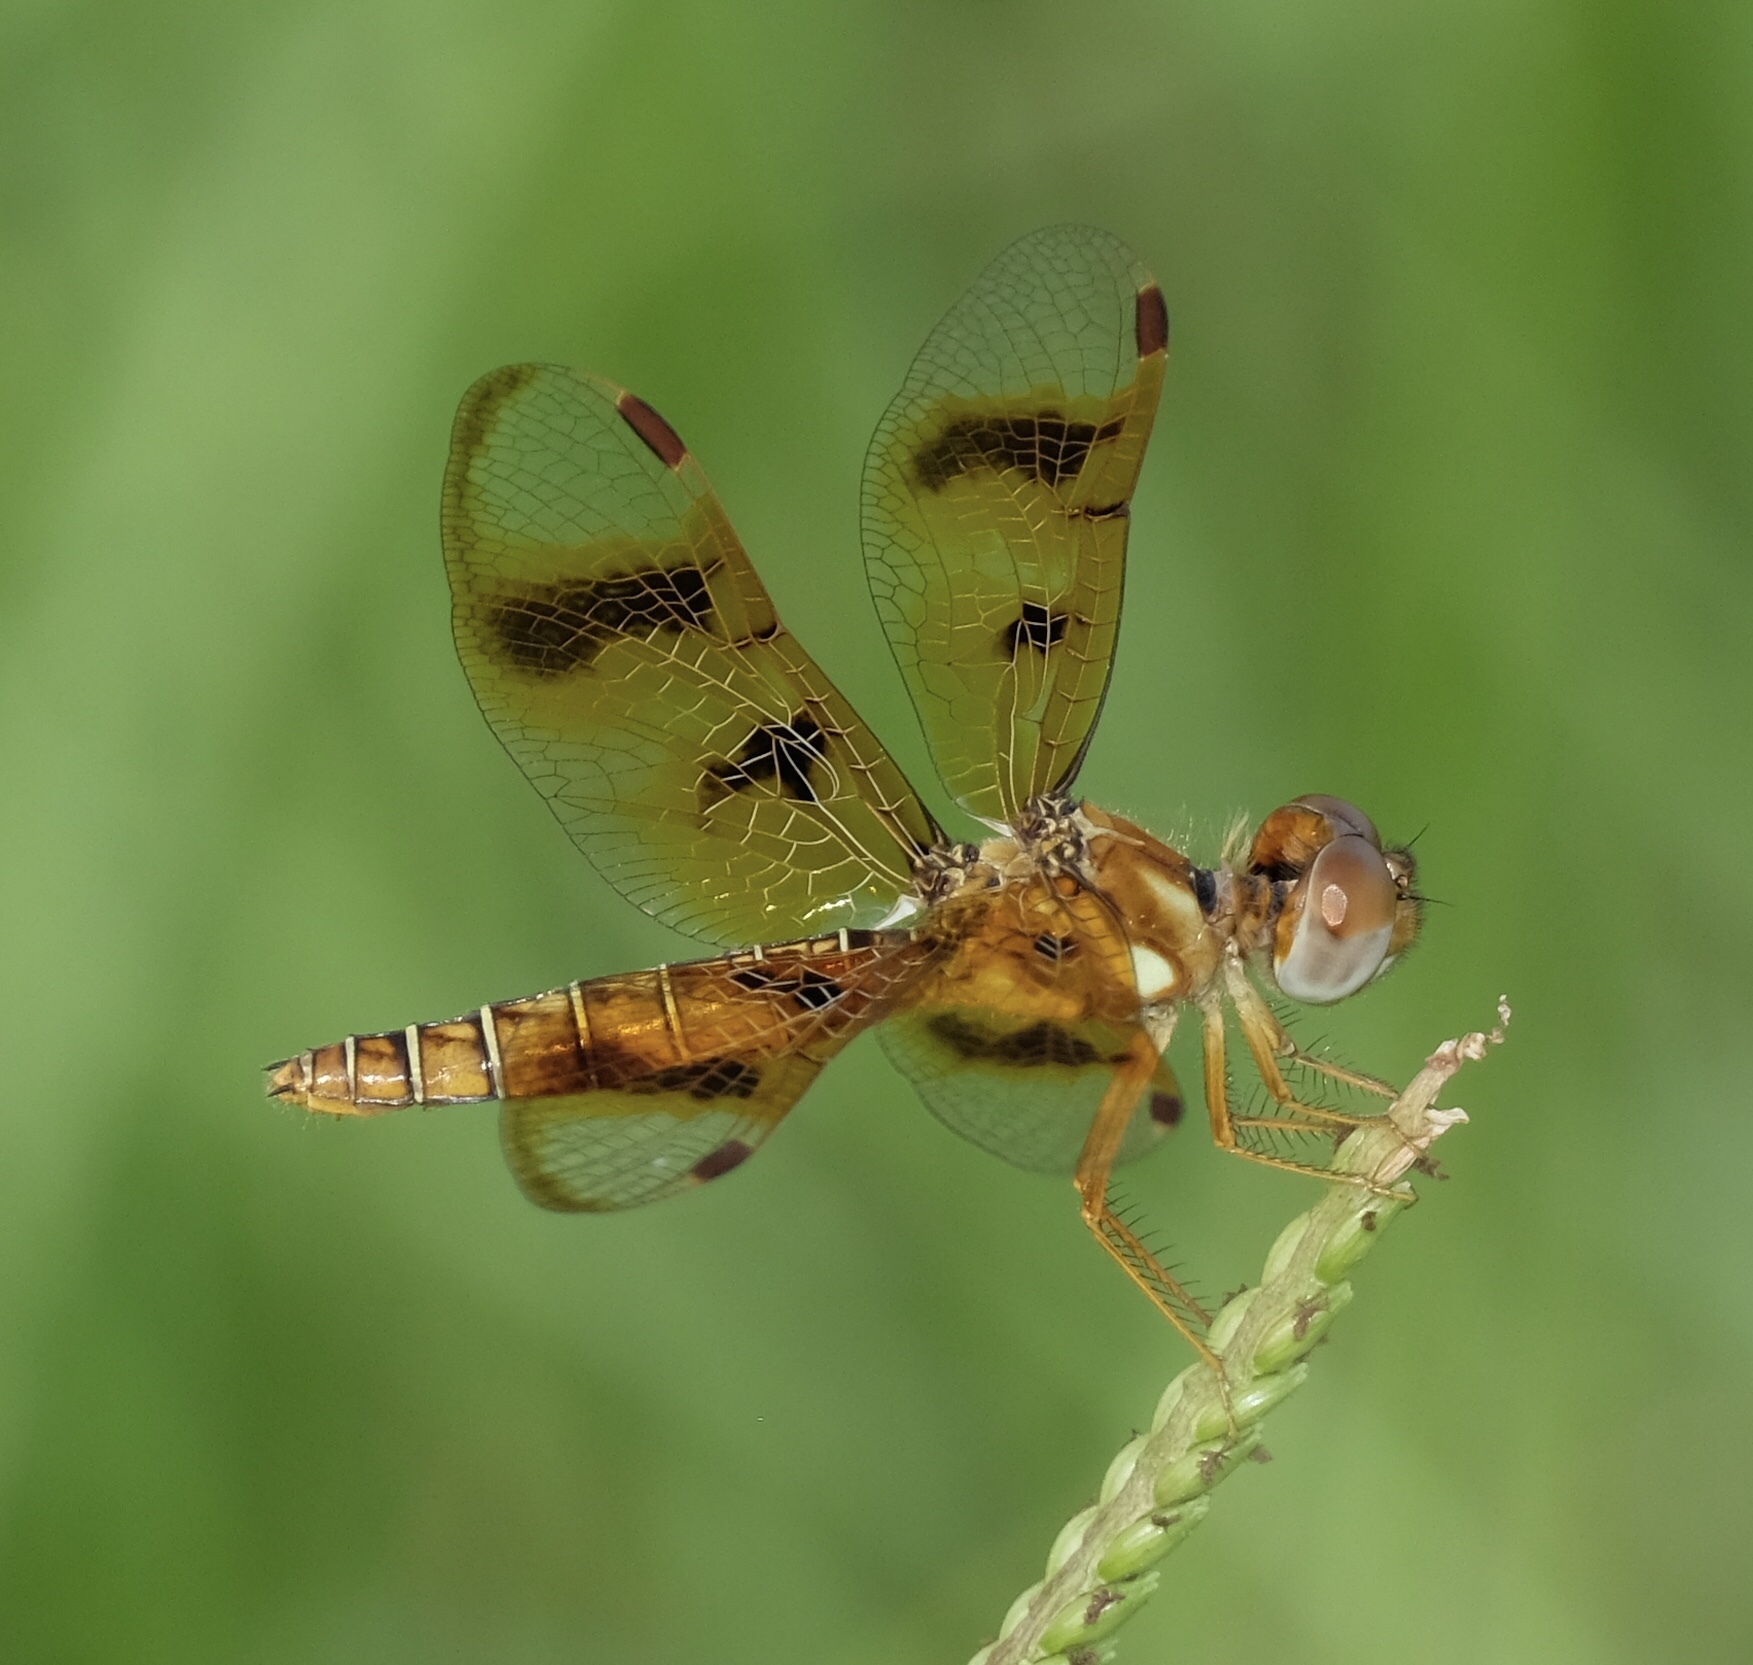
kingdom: Animalia
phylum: Arthropoda
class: Insecta
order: Odonata
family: Libellulidae
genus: Perithemis
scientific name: Perithemis tenera
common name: Eastern amberwing
